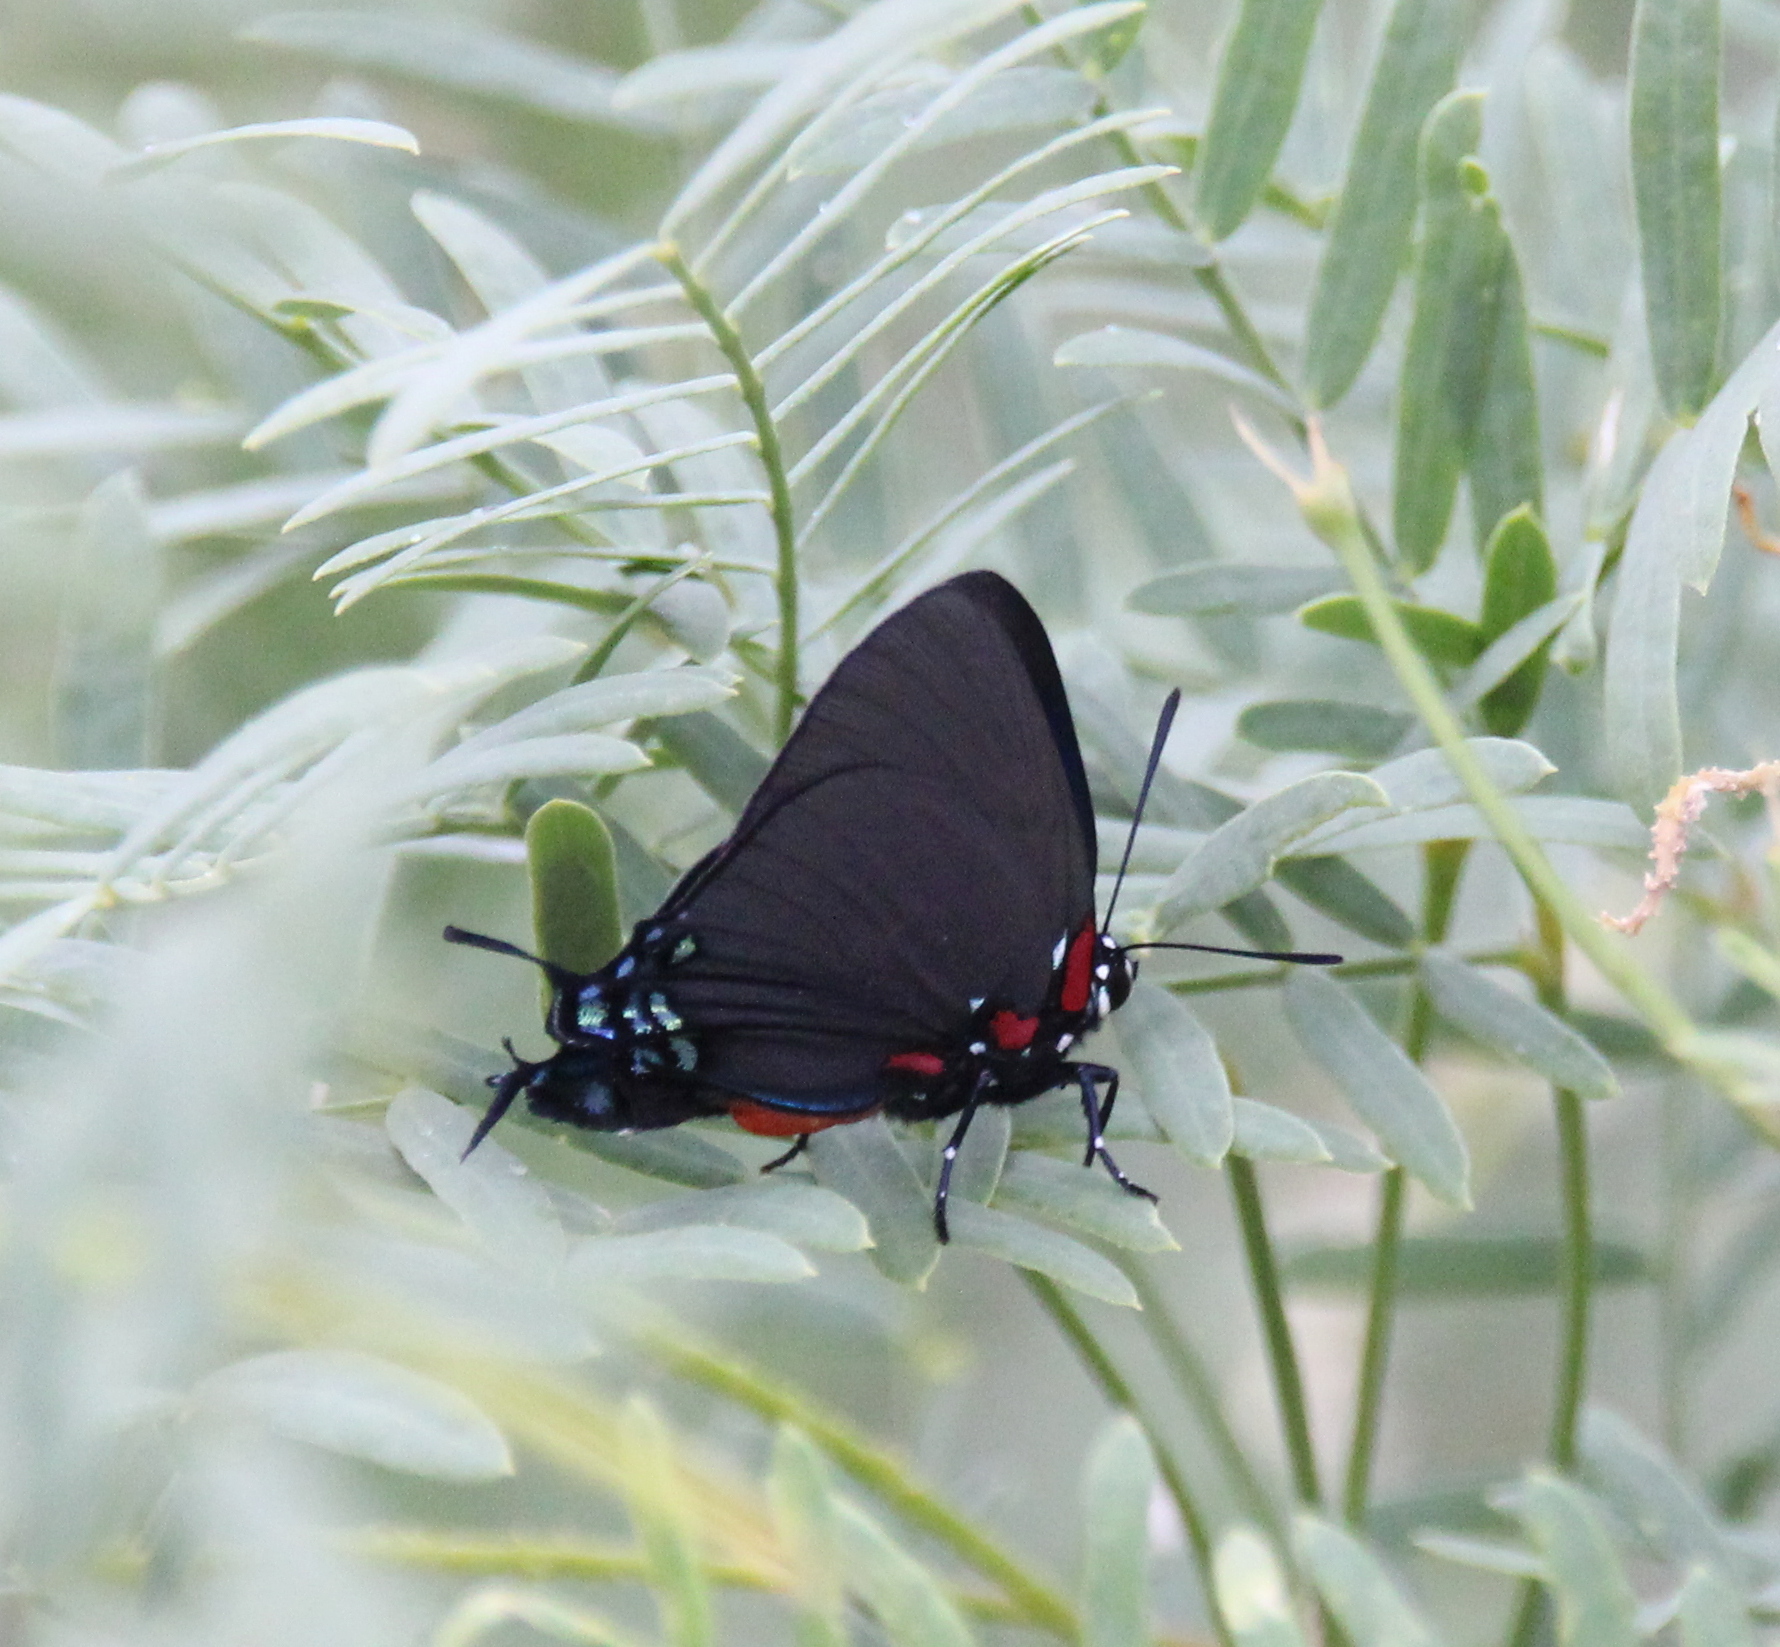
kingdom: Animalia
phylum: Arthropoda
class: Insecta
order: Lepidoptera
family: Lycaenidae
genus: Atlides
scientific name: Atlides halesus
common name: Great purple hairstreak
